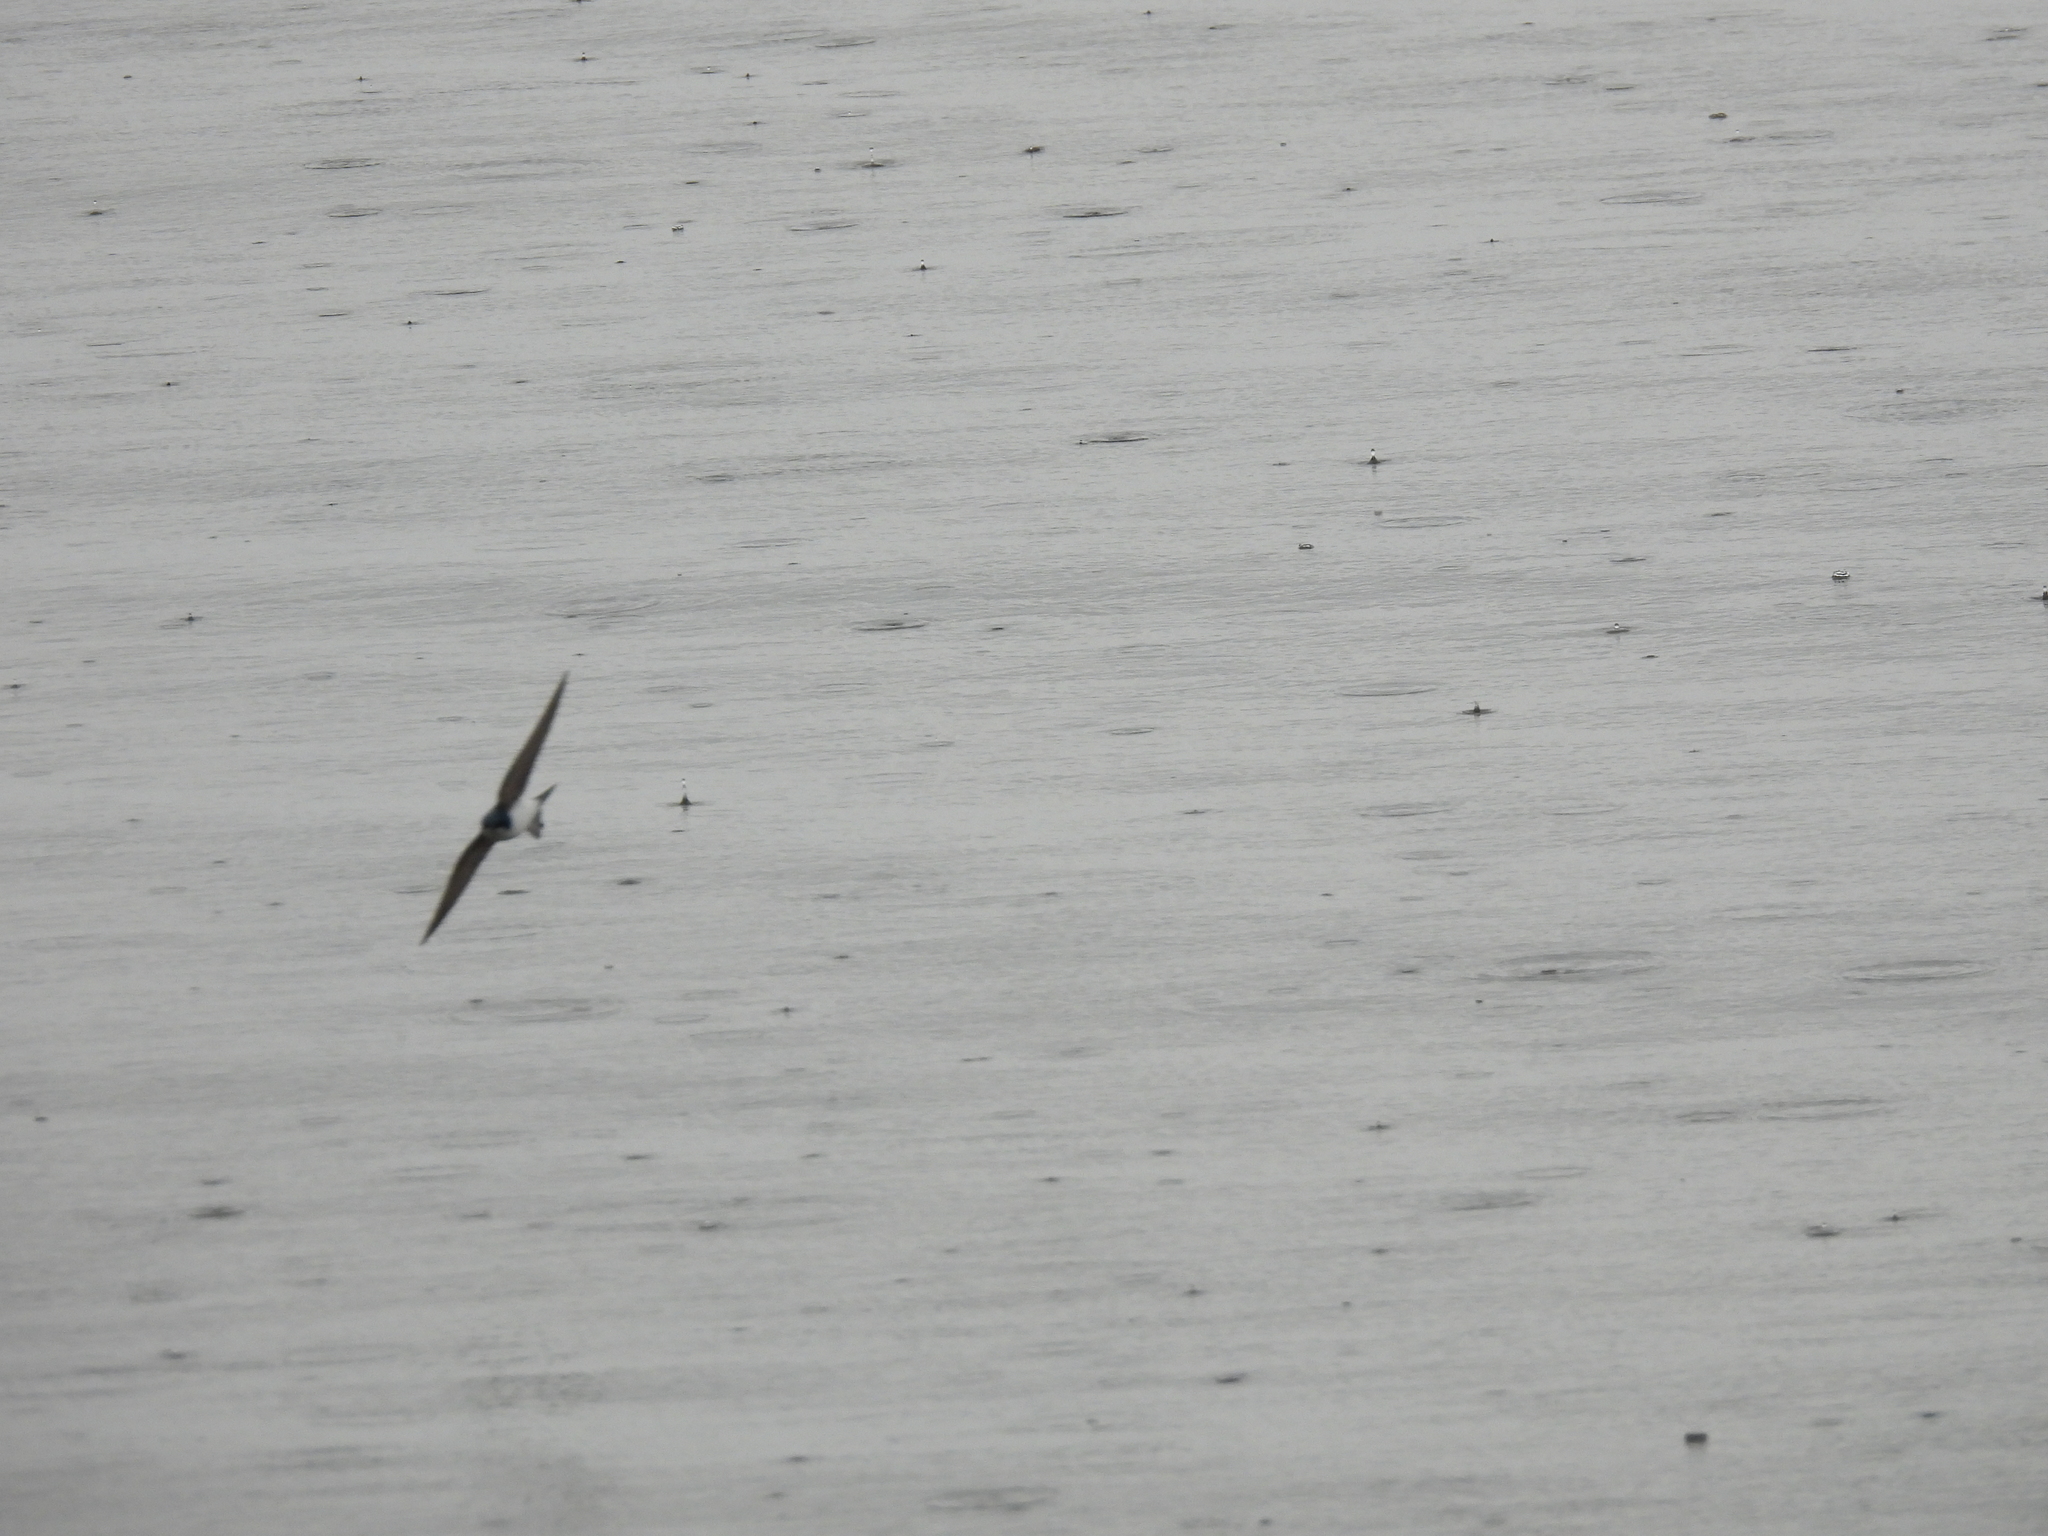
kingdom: Animalia
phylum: Chordata
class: Aves
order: Passeriformes
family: Hirundinidae
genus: Tachycineta
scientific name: Tachycineta bicolor
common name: Tree swallow
